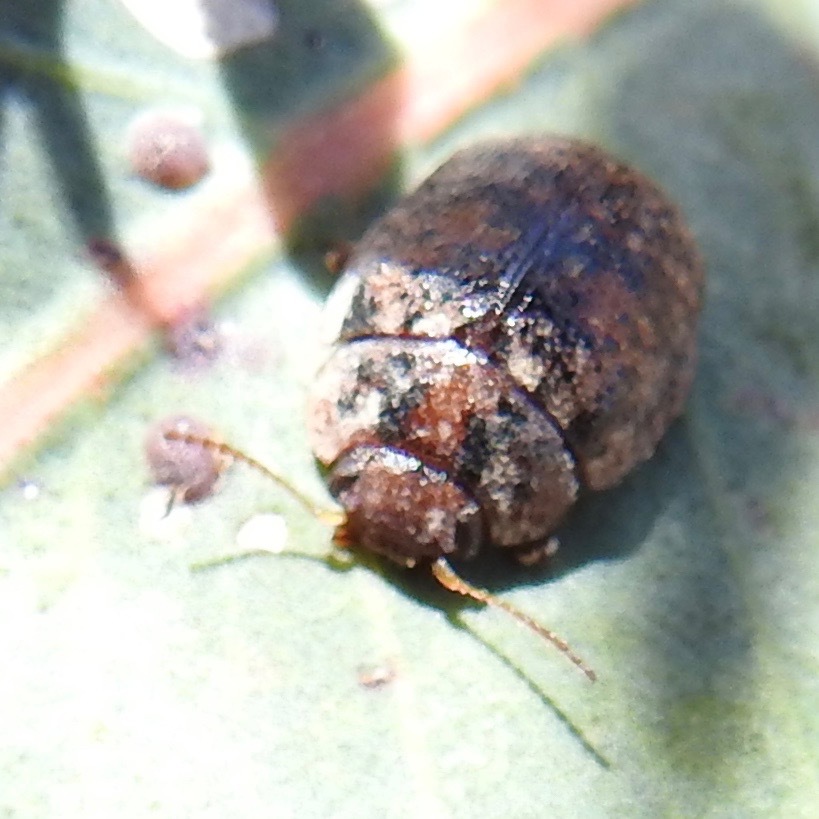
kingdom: Animalia
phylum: Arthropoda
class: Insecta
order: Coleoptera
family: Chrysomelidae
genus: Trachymela
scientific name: Trachymela sloanei
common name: Australian tortoise beetle
